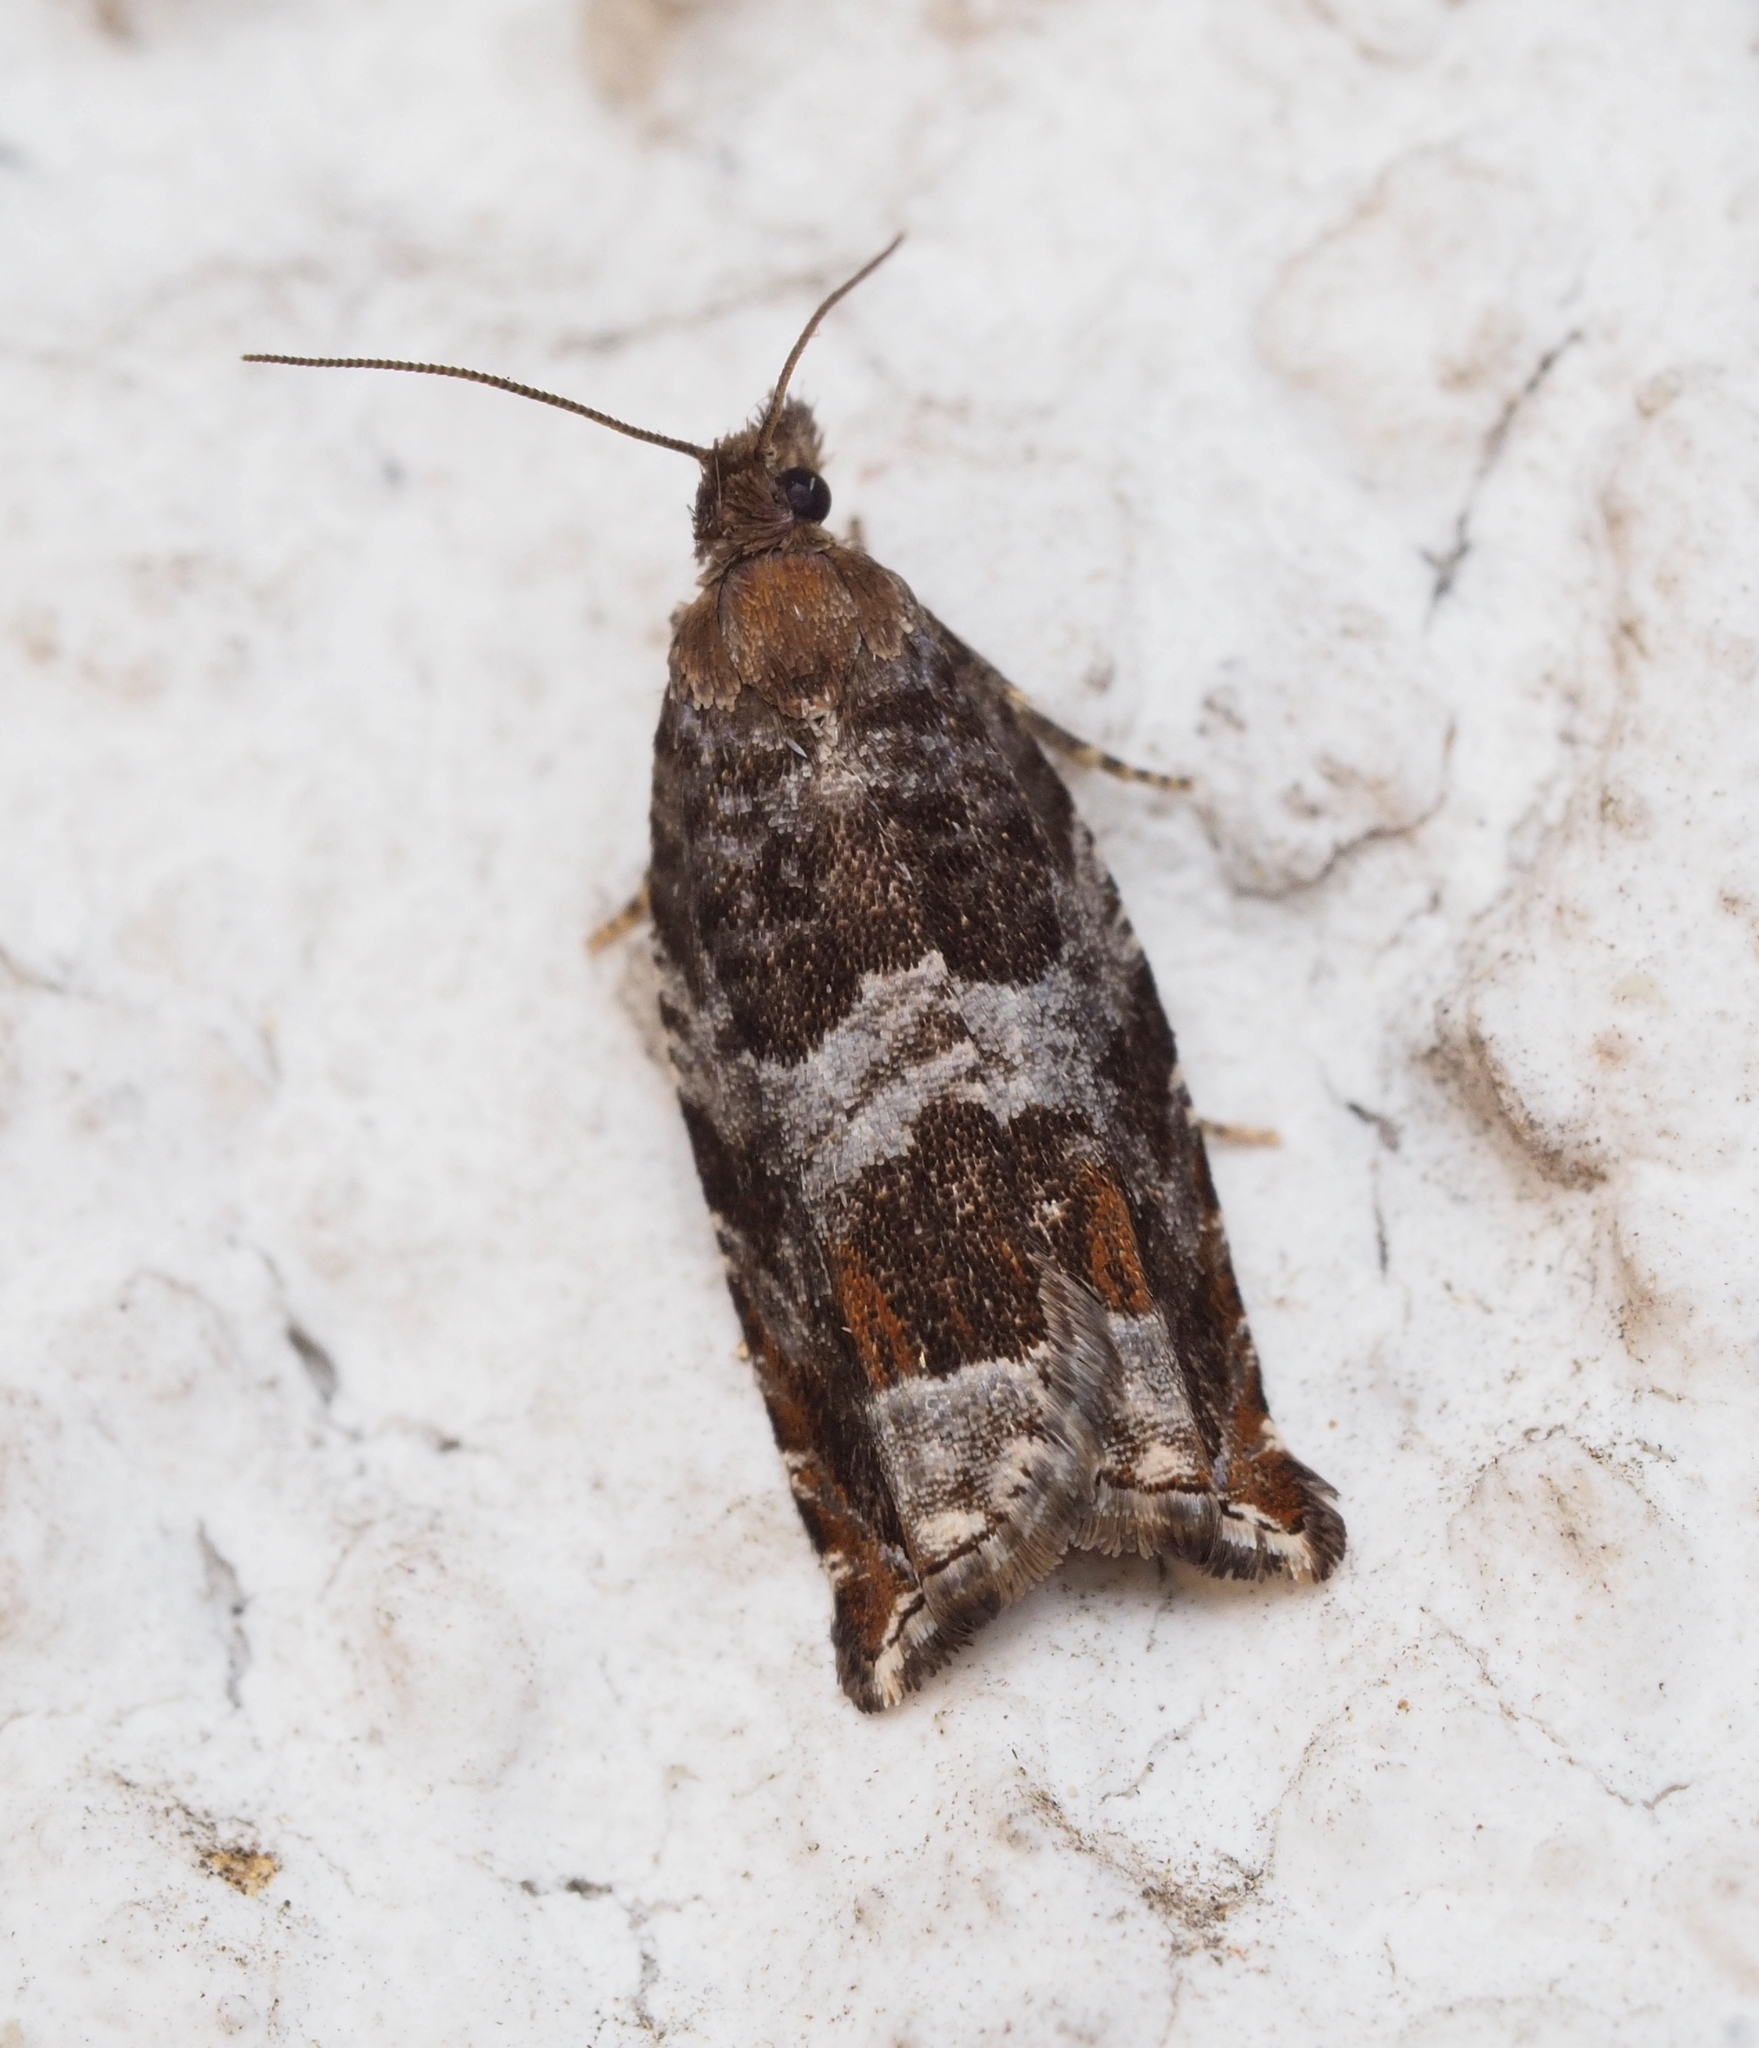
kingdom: Animalia
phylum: Arthropoda
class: Insecta
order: Lepidoptera
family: Tortricidae
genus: Ancylis
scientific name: Ancylis achatana
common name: Triangle-marked roller
